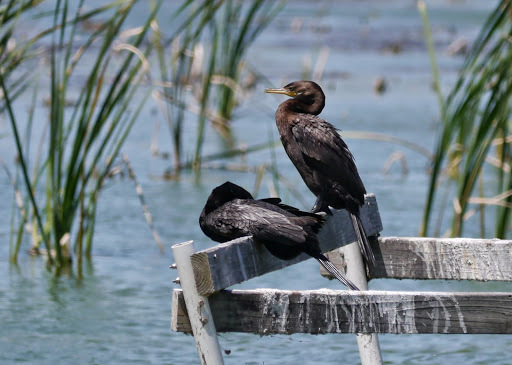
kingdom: Animalia
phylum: Chordata
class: Aves
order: Suliformes
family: Phalacrocoracidae
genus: Phalacrocorax
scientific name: Phalacrocorax brasilianus
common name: Neotropic cormorant
